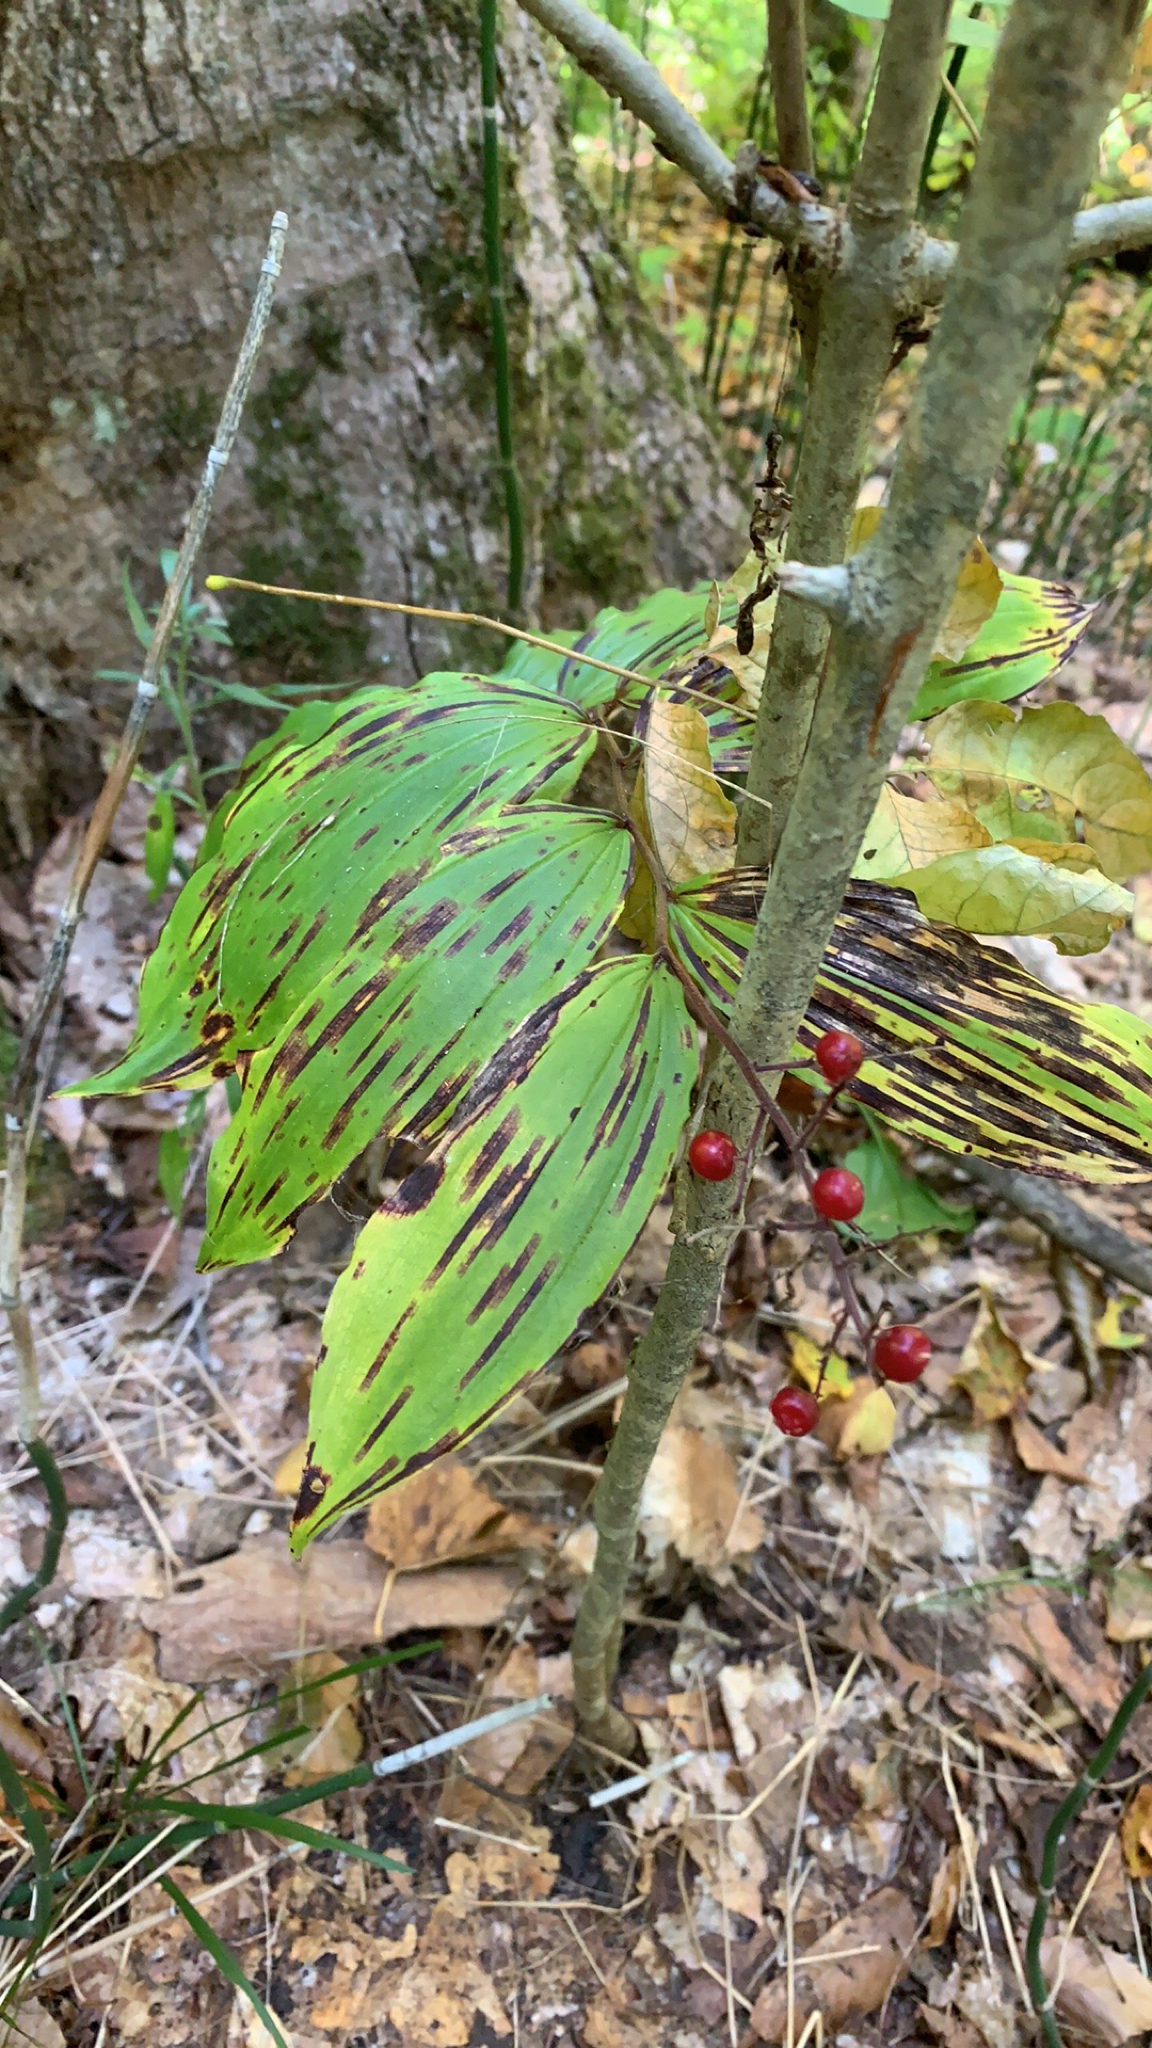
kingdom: Plantae
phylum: Tracheophyta
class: Liliopsida
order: Asparagales
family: Asparagaceae
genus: Maianthemum
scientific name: Maianthemum racemosum
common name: False spikenard
